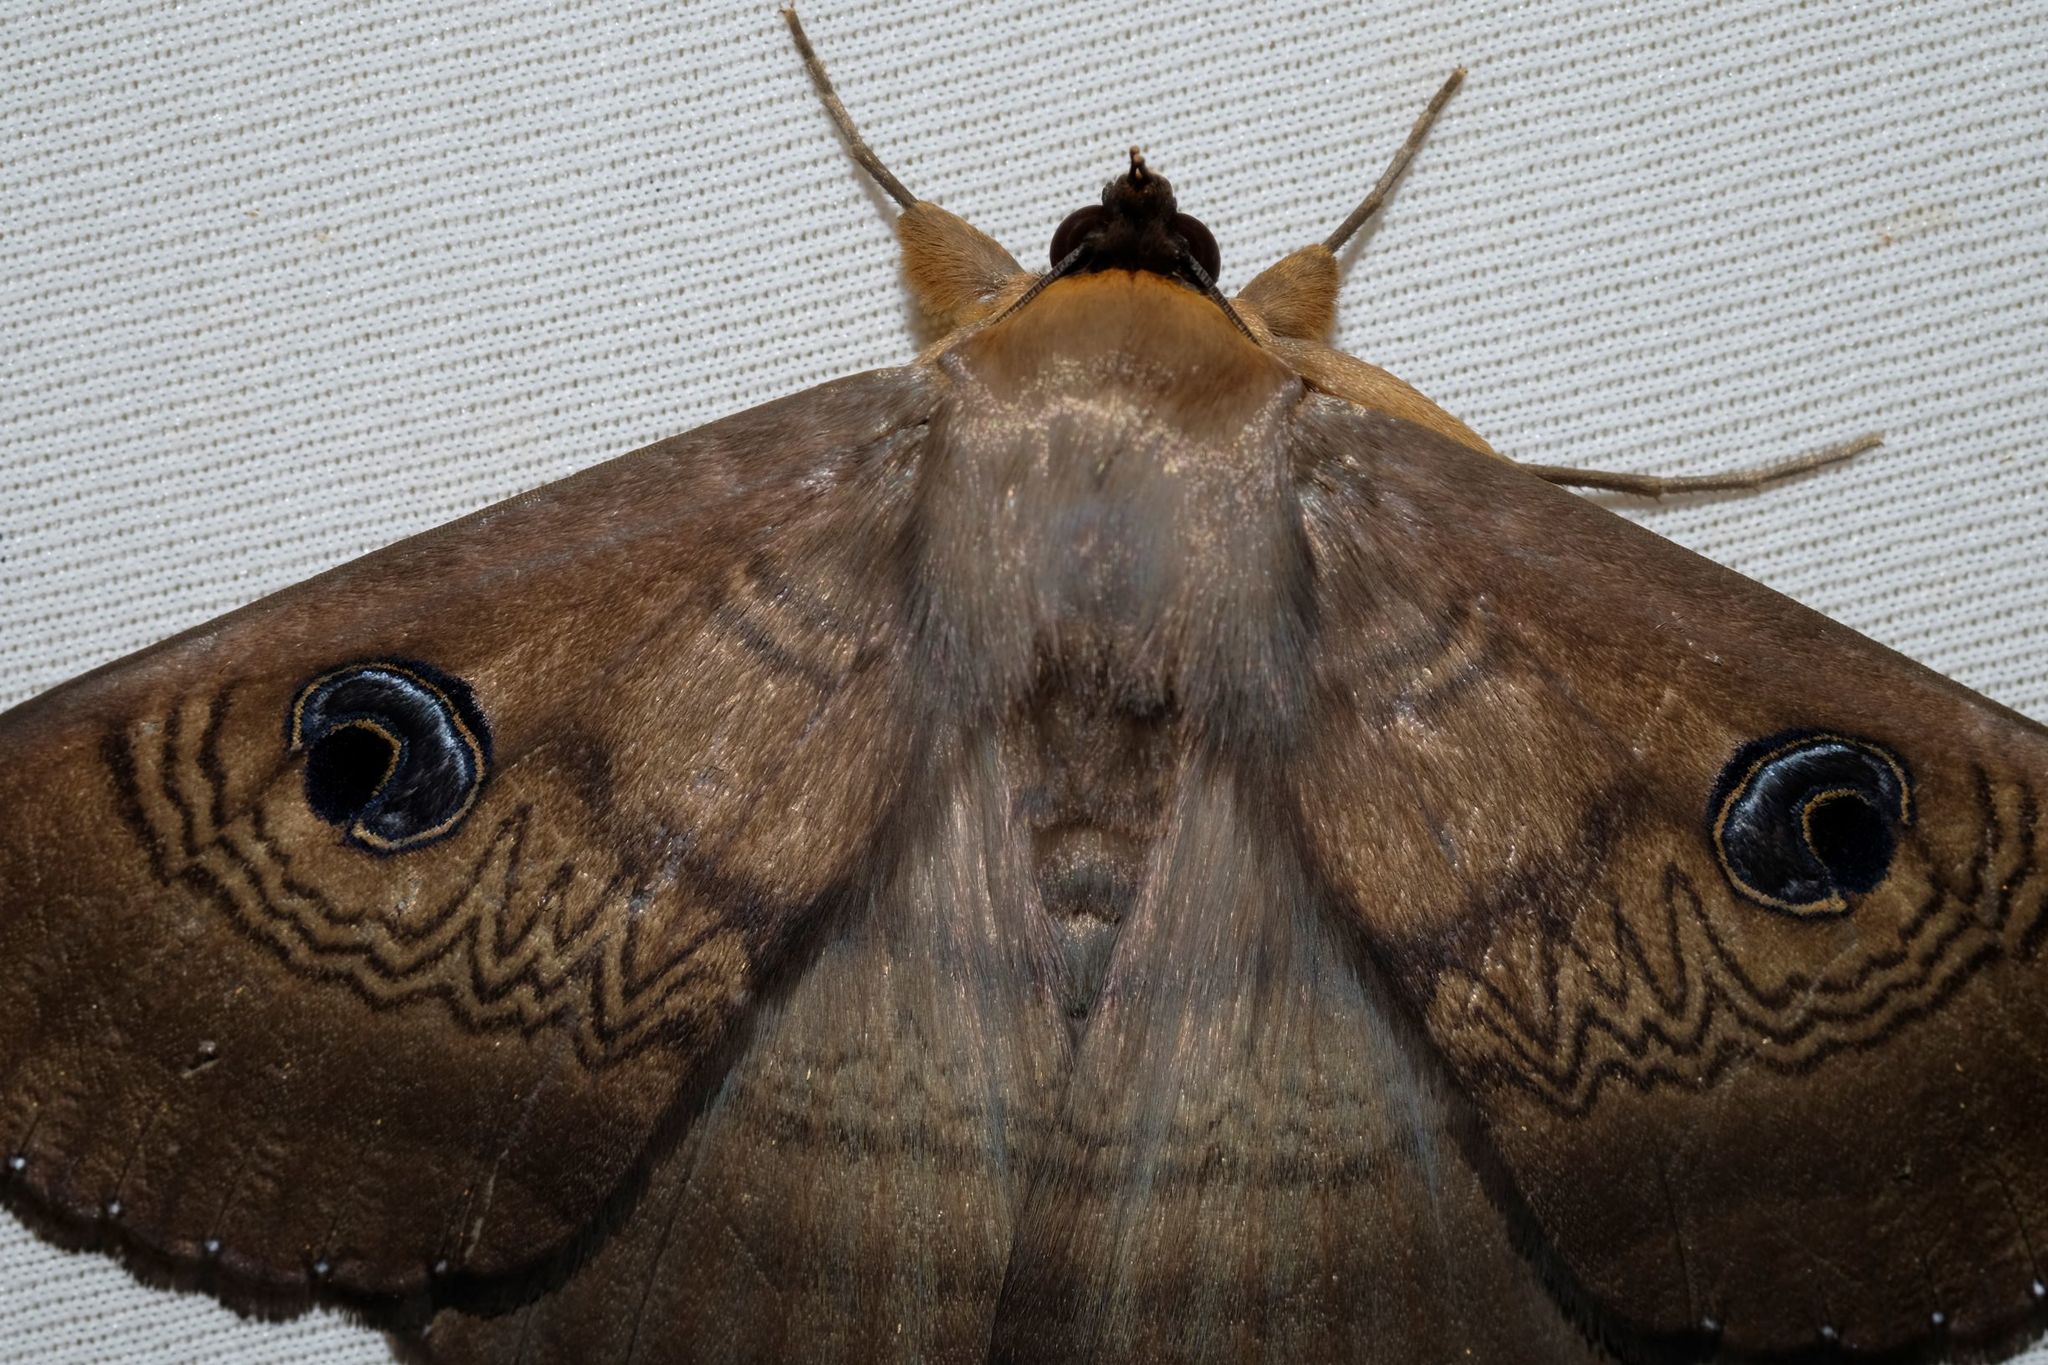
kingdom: Animalia
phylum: Arthropoda
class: Insecta
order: Lepidoptera
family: Erebidae
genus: Dasypodia
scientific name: Dasypodia selenophora
